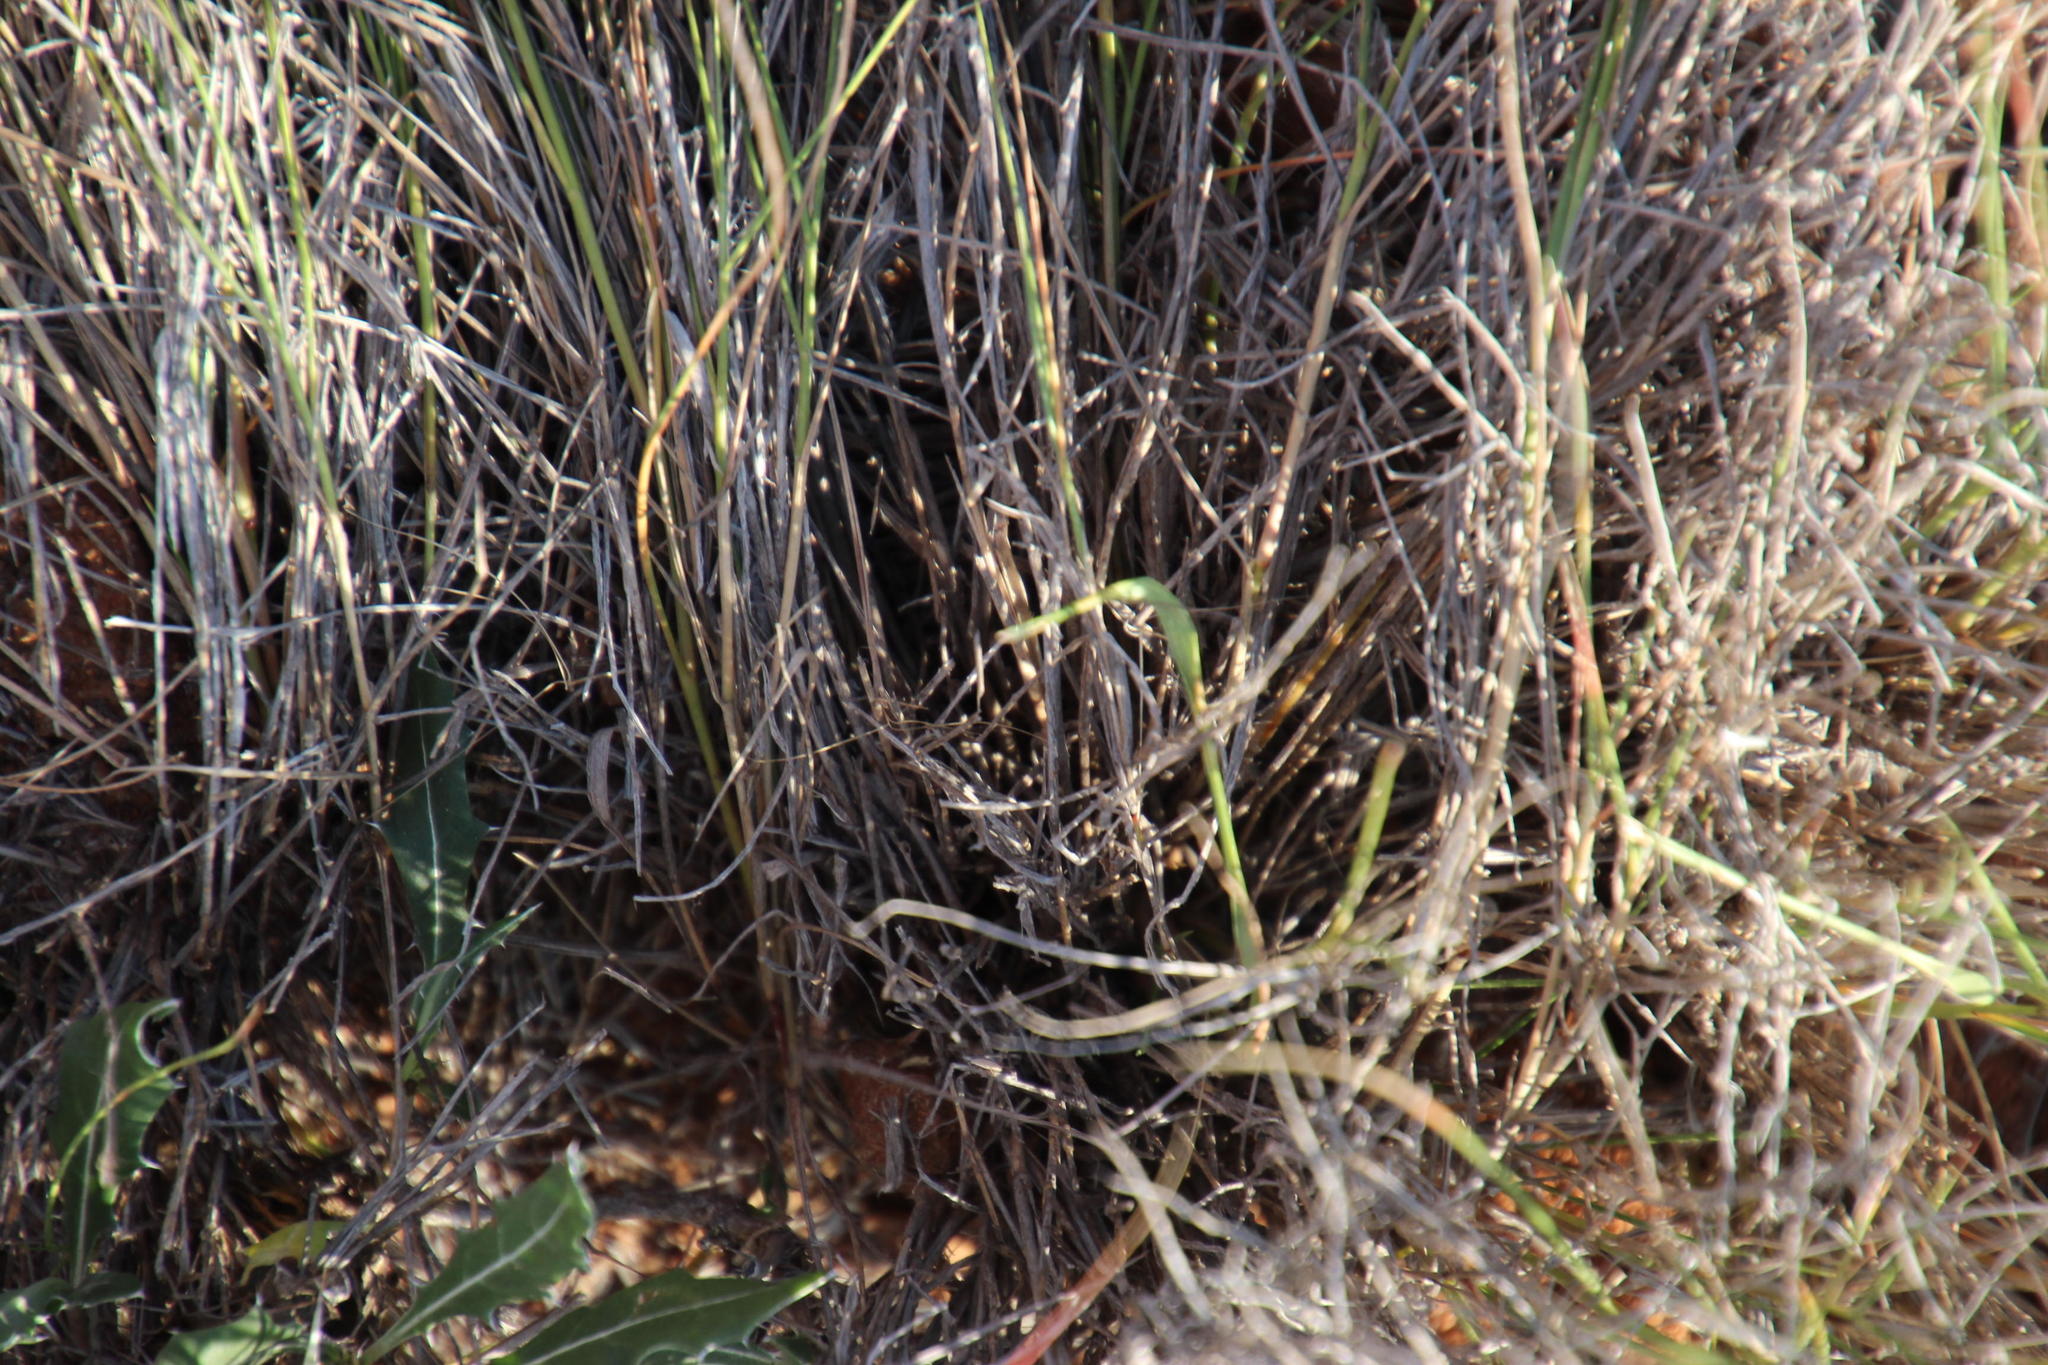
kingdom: Plantae
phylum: Tracheophyta
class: Liliopsida
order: Poales
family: Poaceae
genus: Enneapogon
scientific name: Enneapogon scoparius
